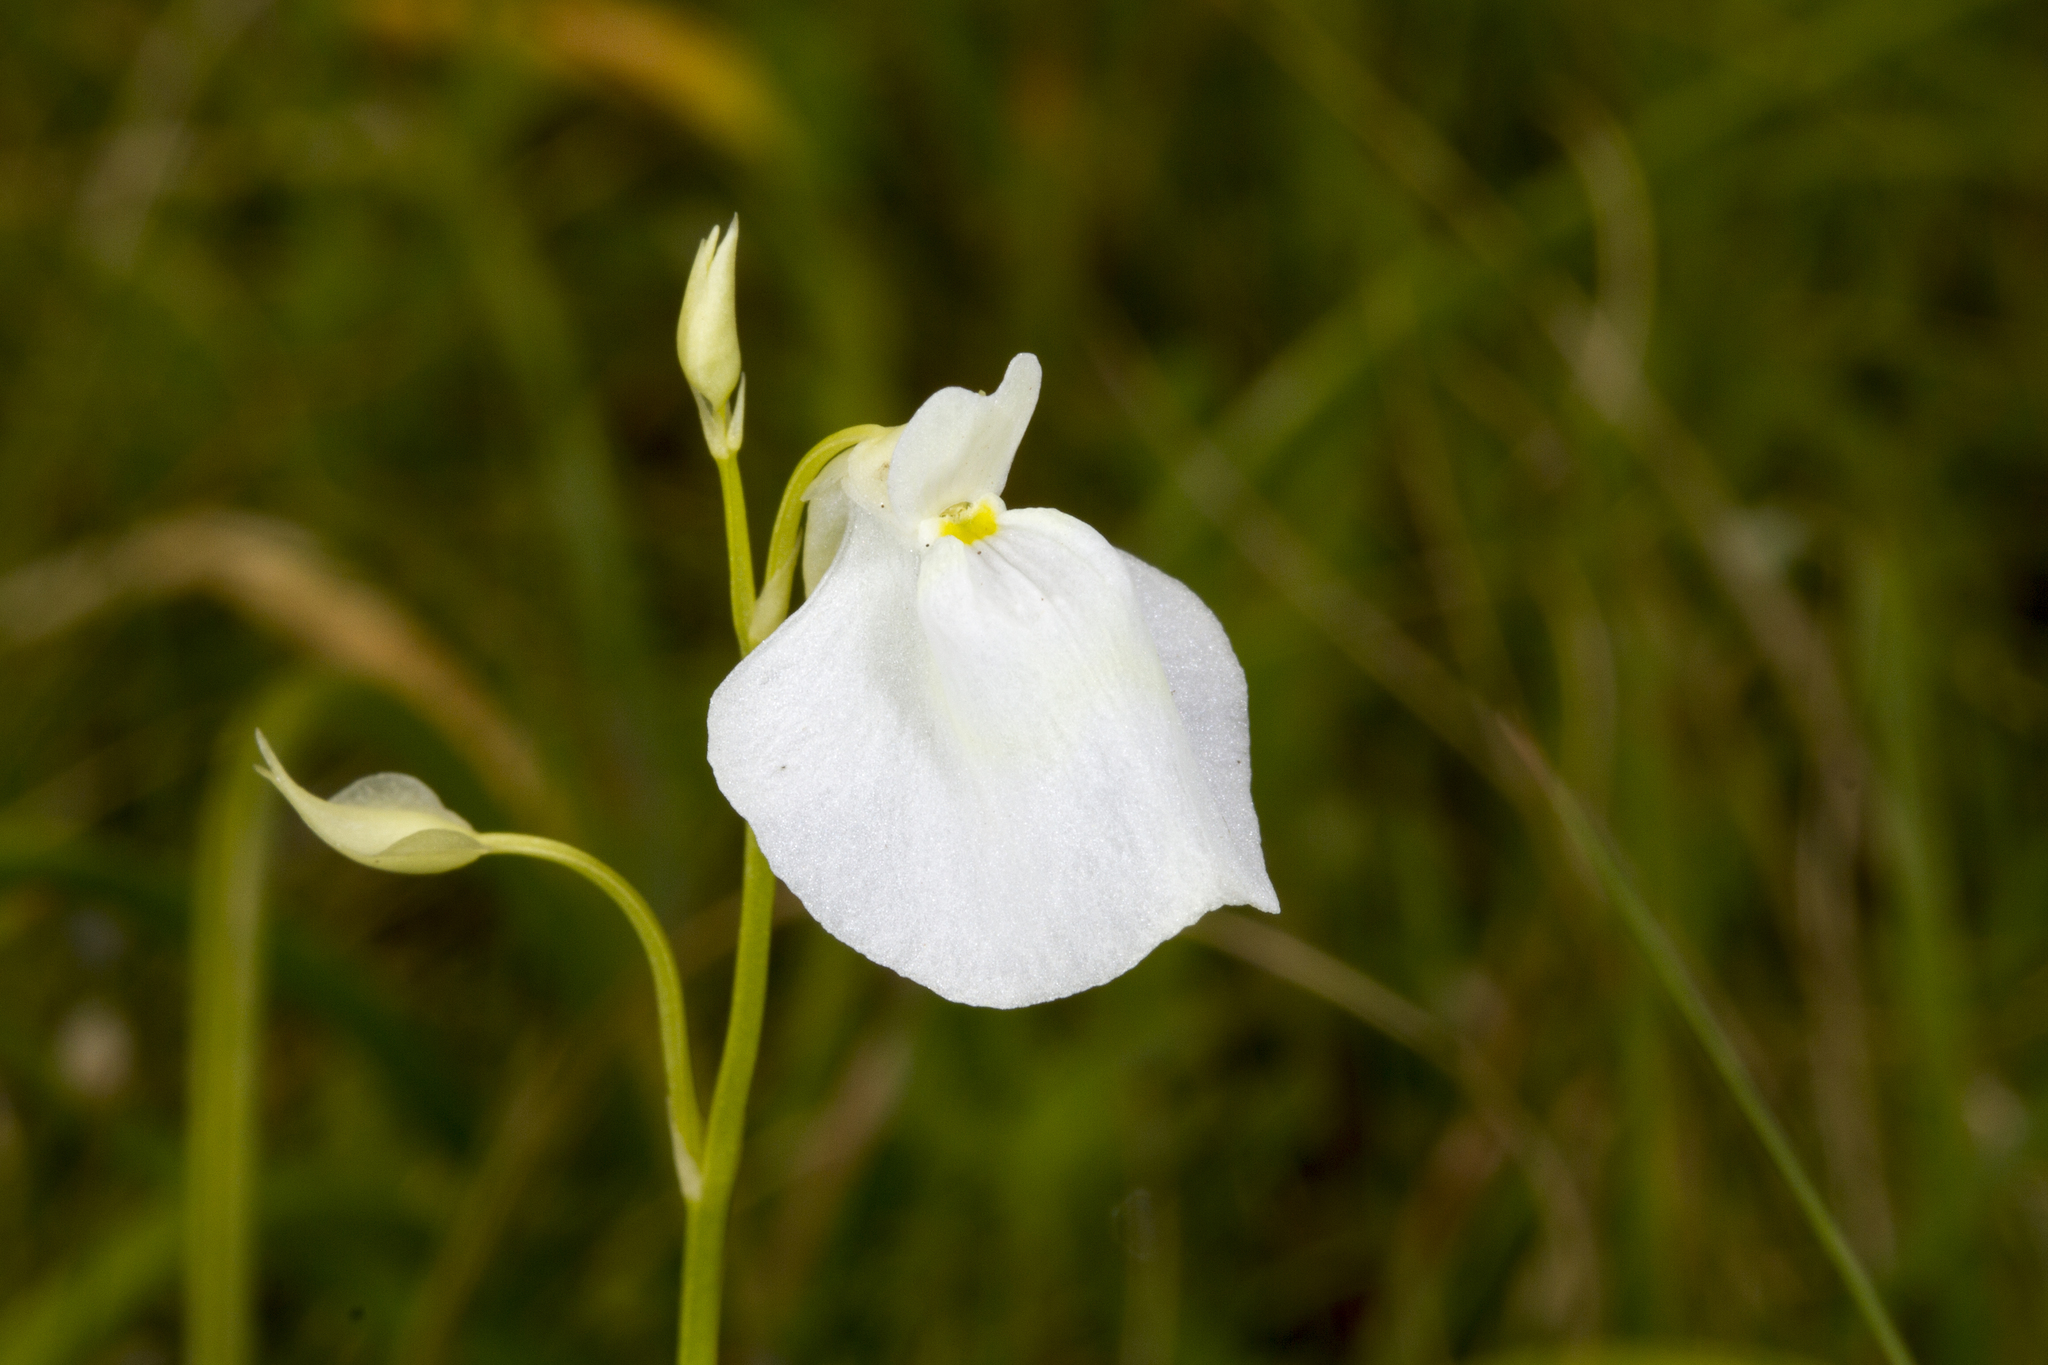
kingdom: Plantae
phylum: Tracheophyta
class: Magnoliopsida
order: Lamiales
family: Lentibulariaceae
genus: Utricularia
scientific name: Utricularia arcuata
